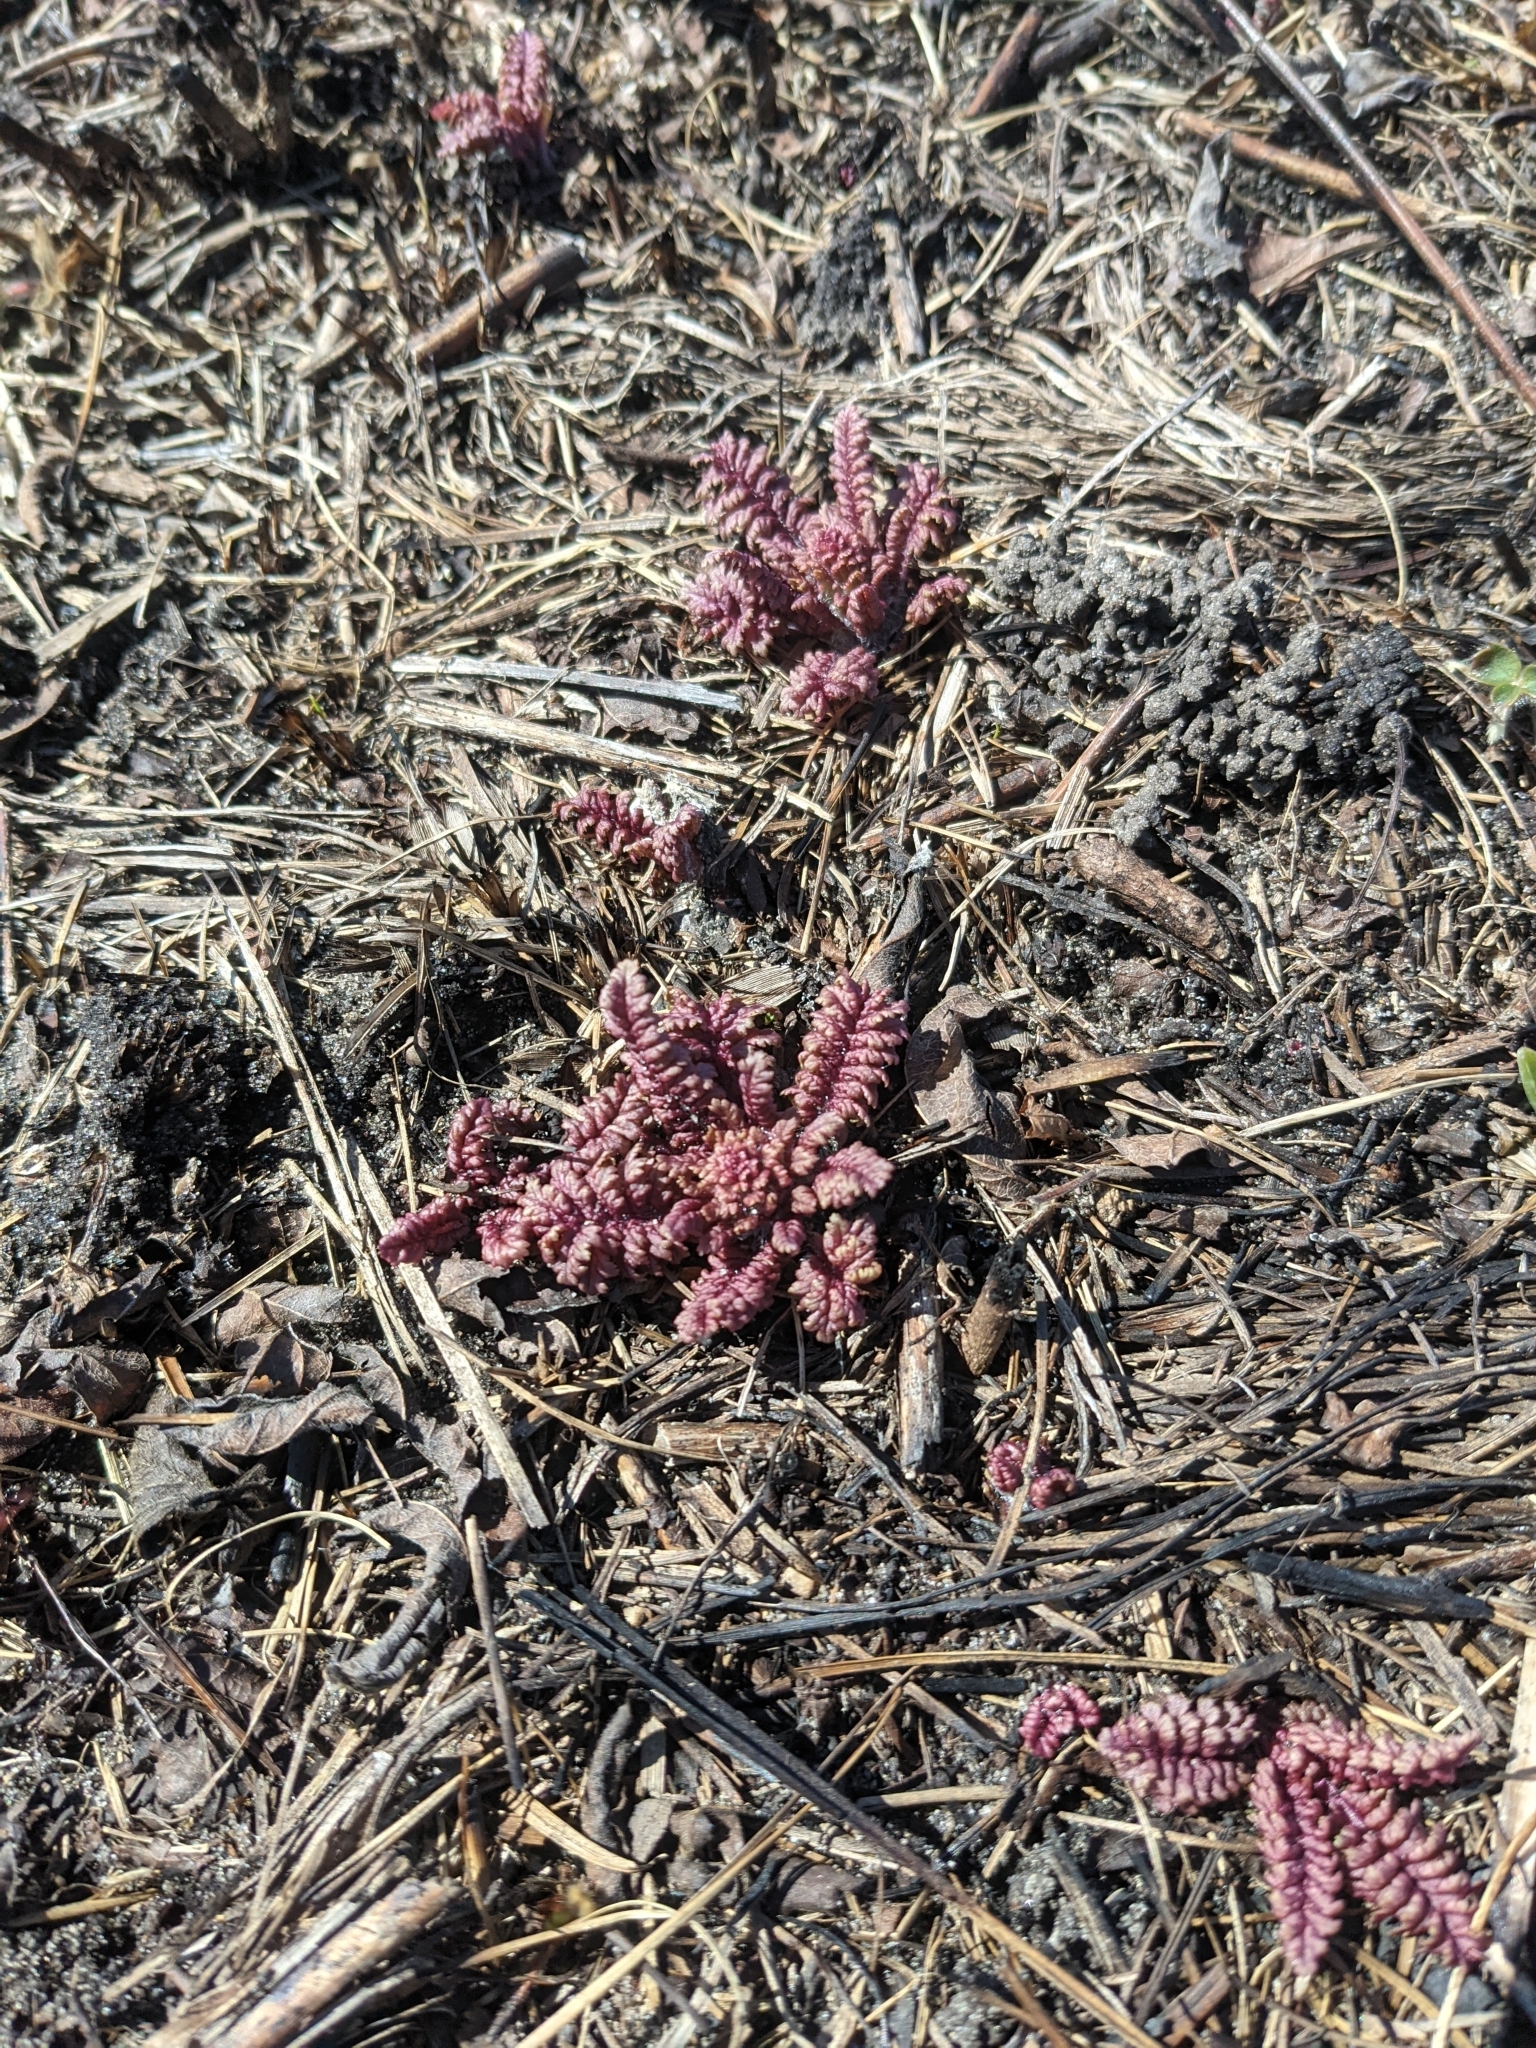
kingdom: Plantae
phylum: Tracheophyta
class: Magnoliopsida
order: Lamiales
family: Orobanchaceae
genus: Pedicularis
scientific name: Pedicularis canadensis
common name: Early lousewort
